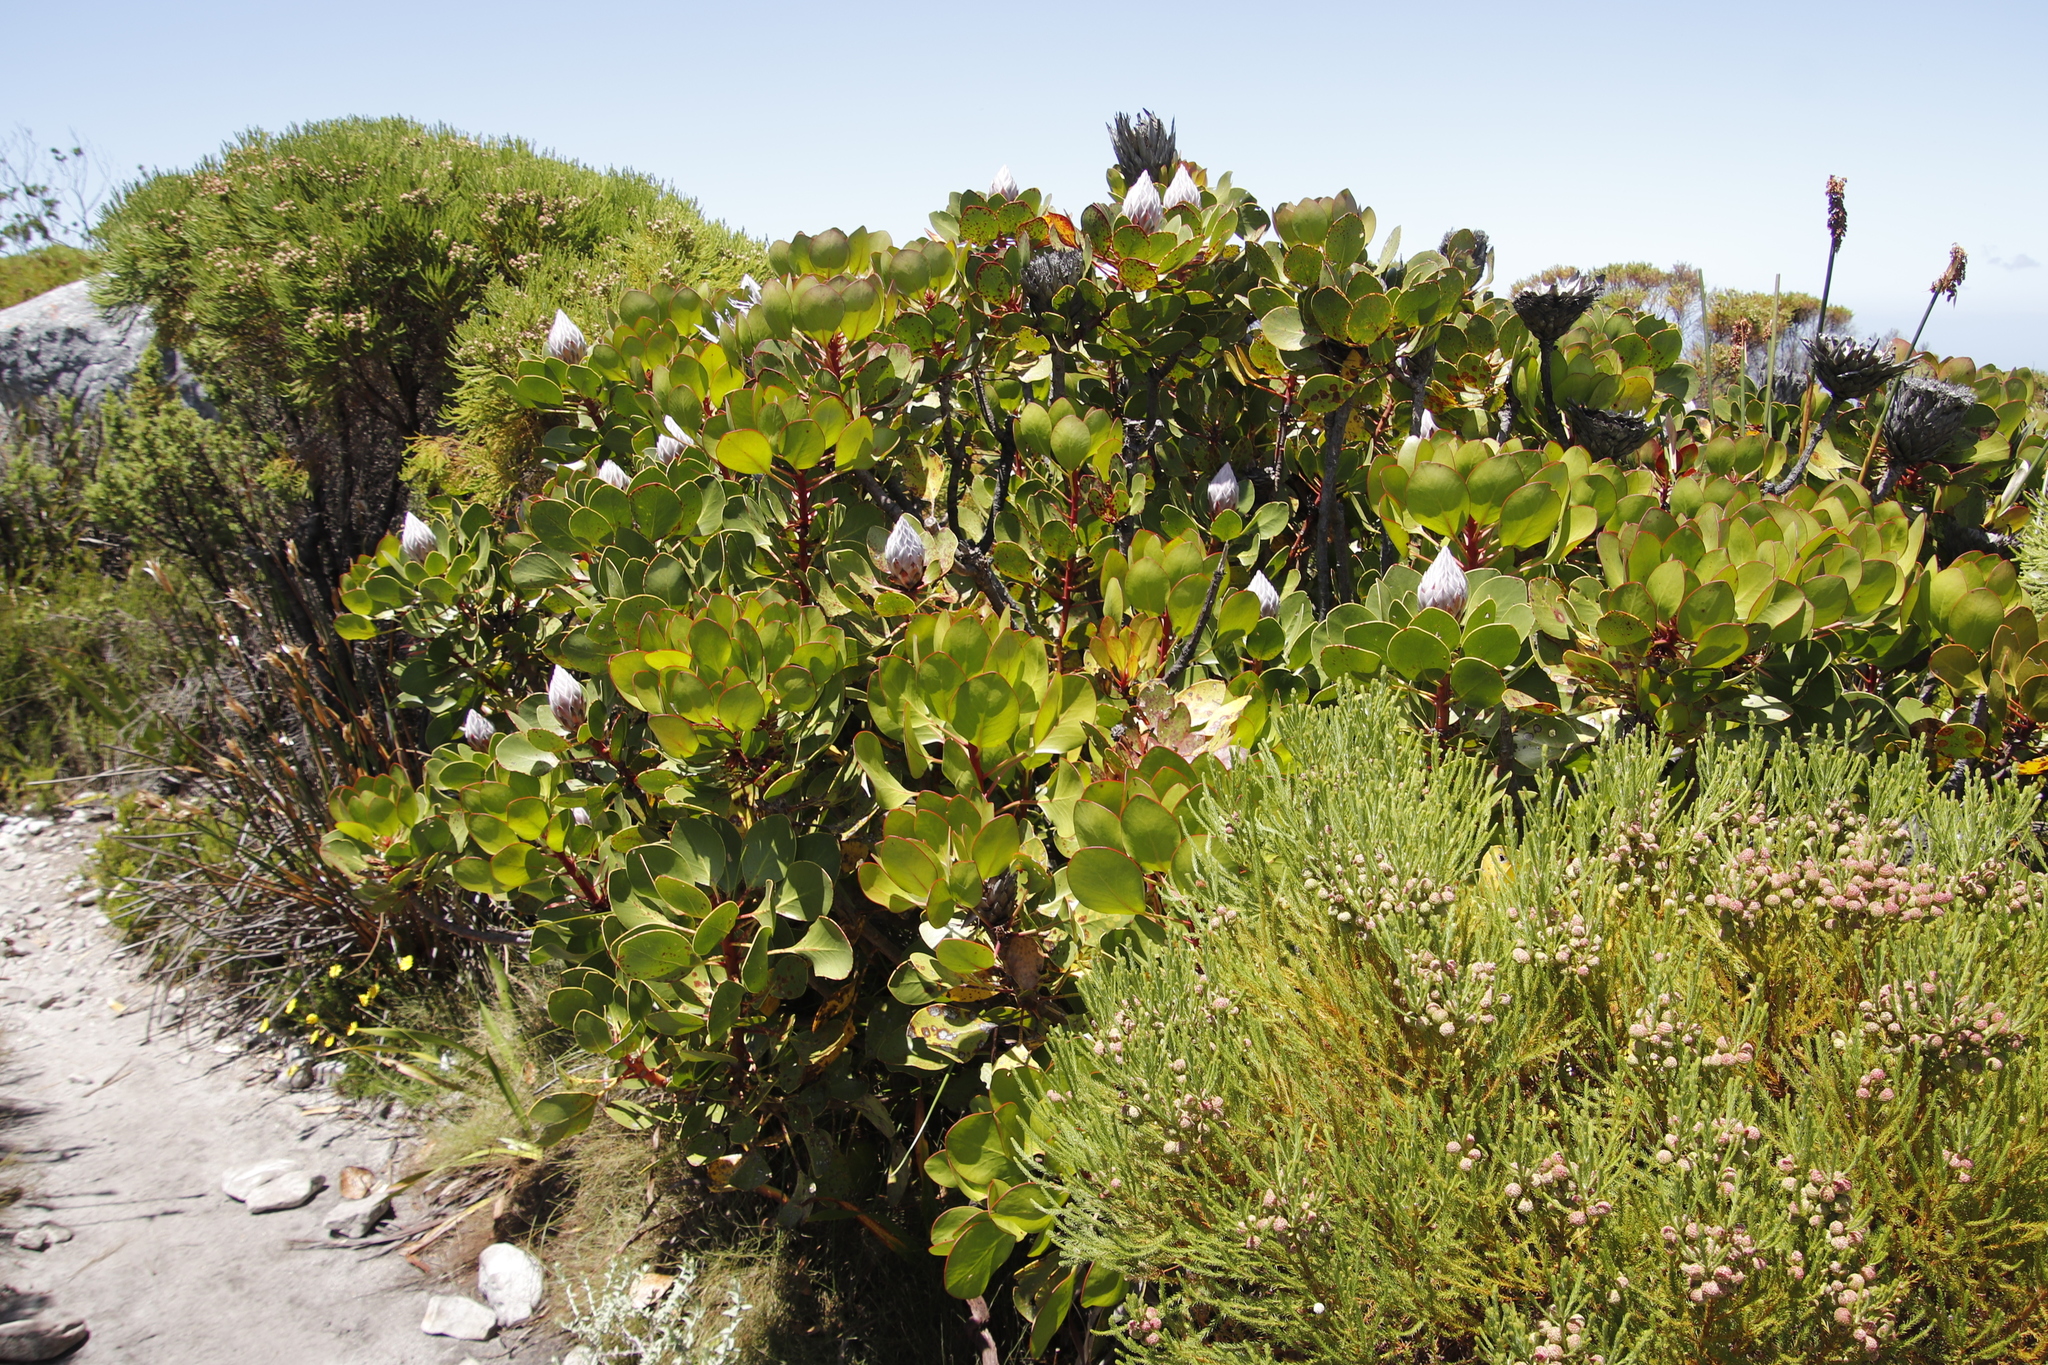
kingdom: Plantae
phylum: Tracheophyta
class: Magnoliopsida
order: Proteales
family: Proteaceae
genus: Protea
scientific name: Protea cynaroides
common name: King protea
